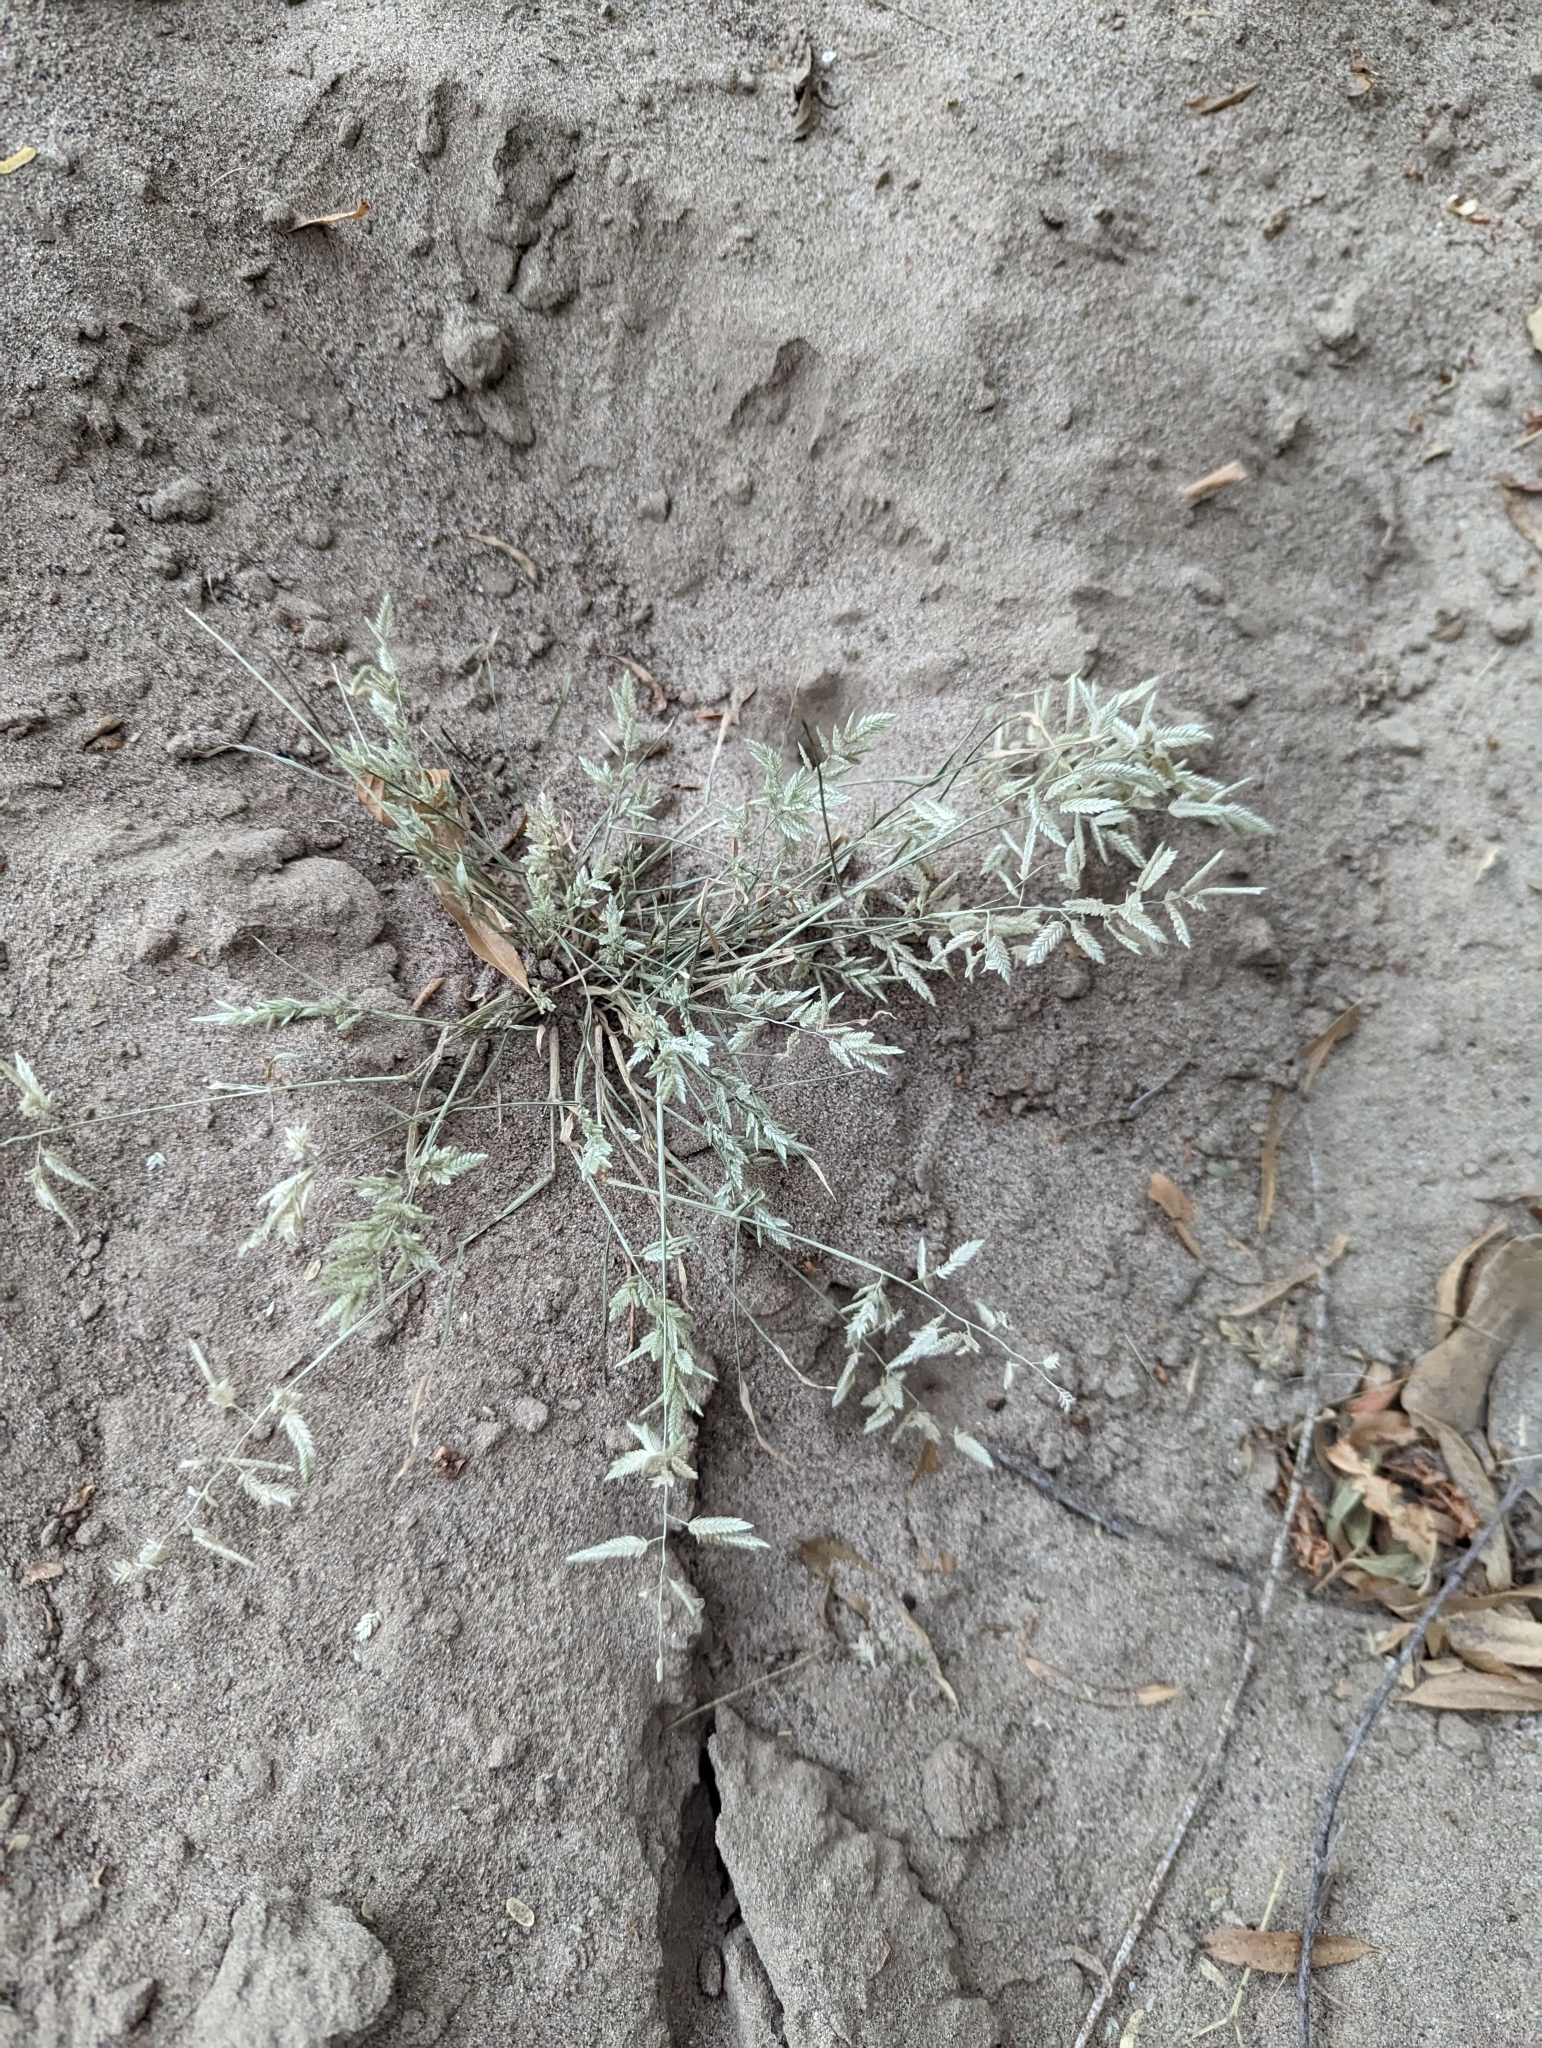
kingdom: Plantae
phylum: Tracheophyta
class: Liliopsida
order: Poales
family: Poaceae
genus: Eragrostis
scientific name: Eragrostis cilianensis
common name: Stinkgrass
